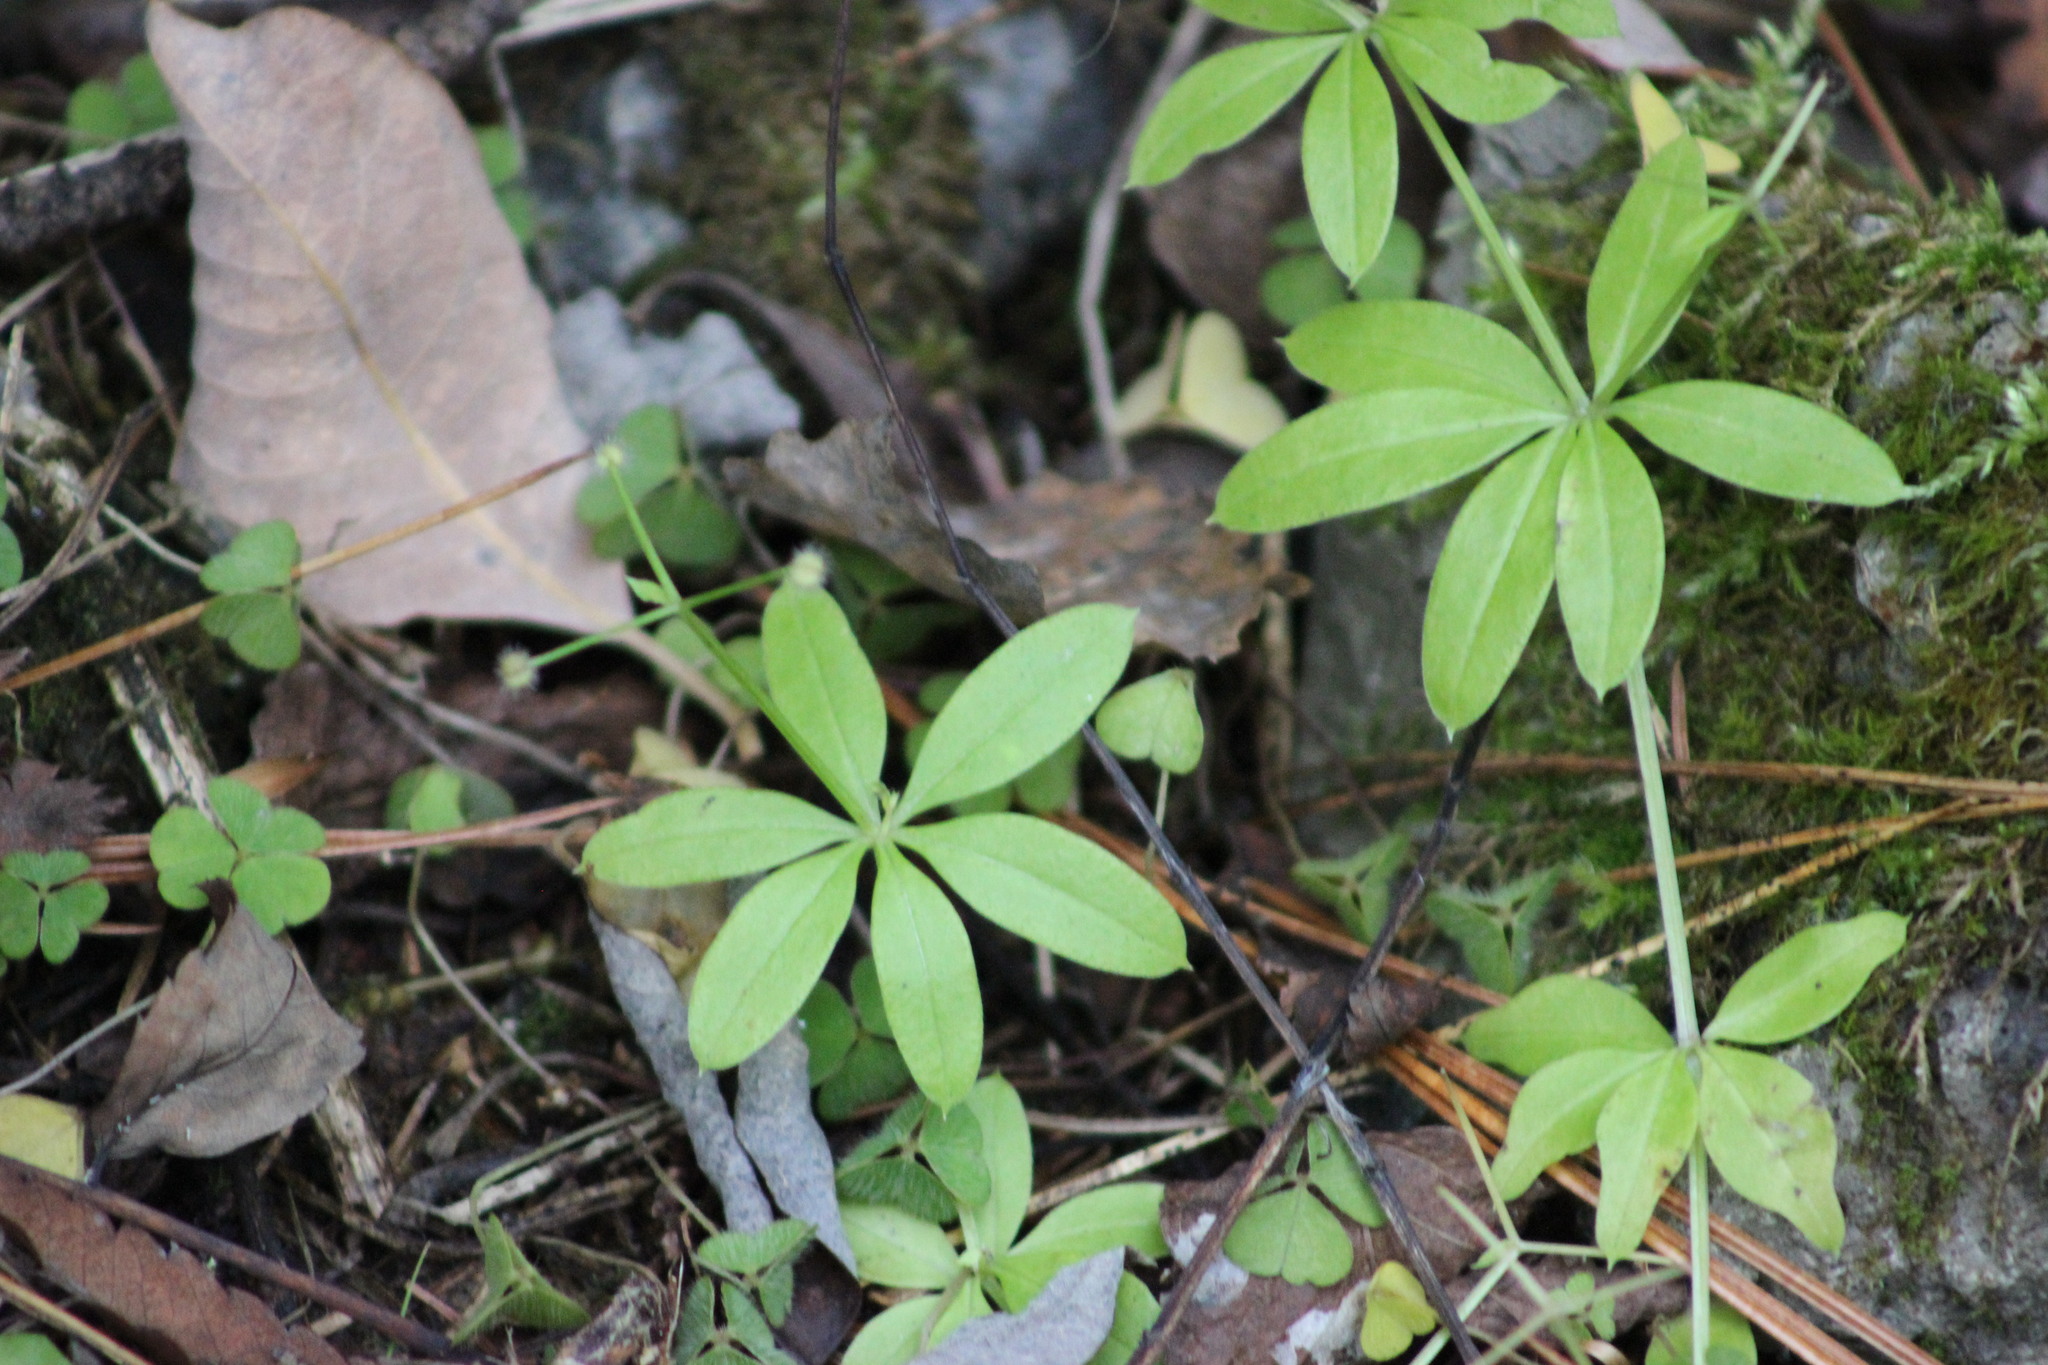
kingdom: Plantae
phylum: Tracheophyta
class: Magnoliopsida
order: Gentianales
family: Rubiaceae
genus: Galium
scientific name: Galium triflorum
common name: Fragrant bedstraw
